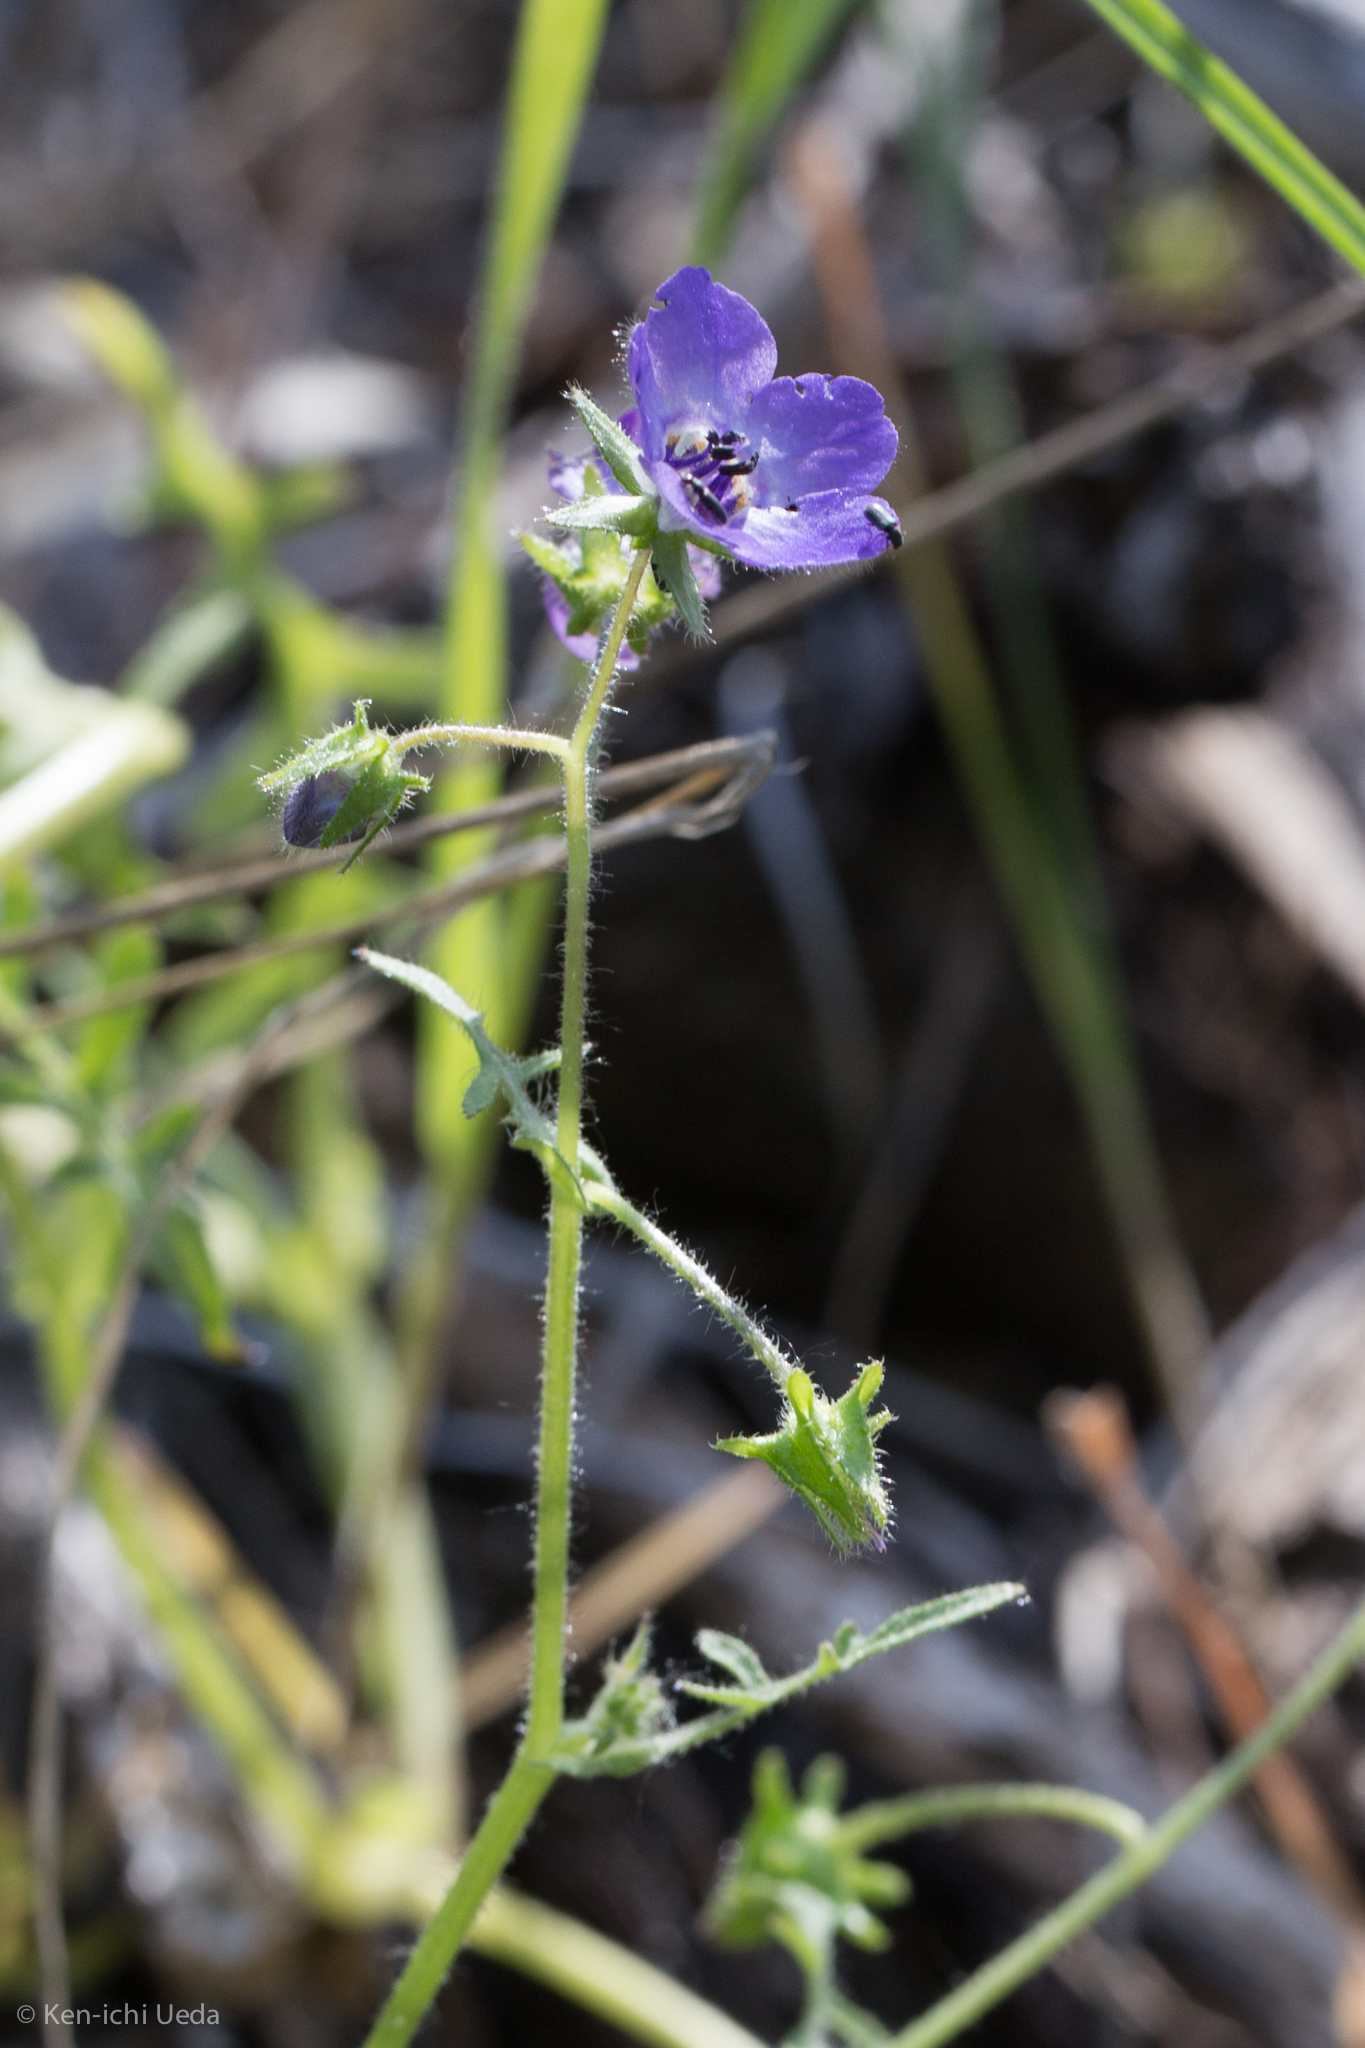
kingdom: Plantae
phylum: Tracheophyta
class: Magnoliopsida
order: Boraginales
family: Hydrophyllaceae
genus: Pholistoma
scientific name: Pholistoma auritum
